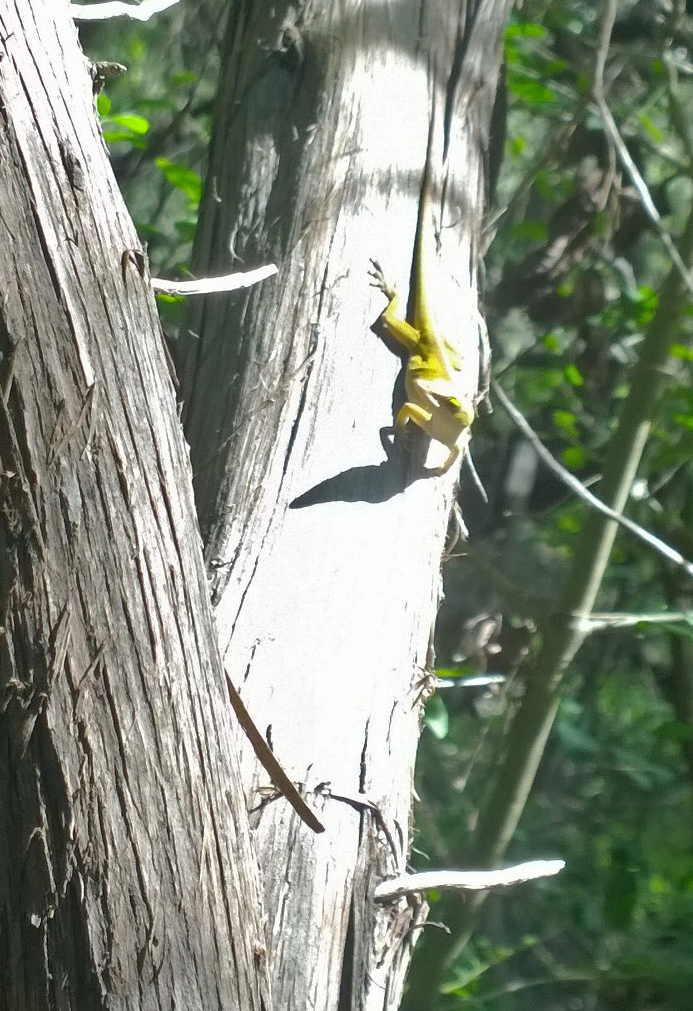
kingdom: Animalia
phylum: Chordata
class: Squamata
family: Dactyloidae
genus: Anolis
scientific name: Anolis carolinensis
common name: Green anole
